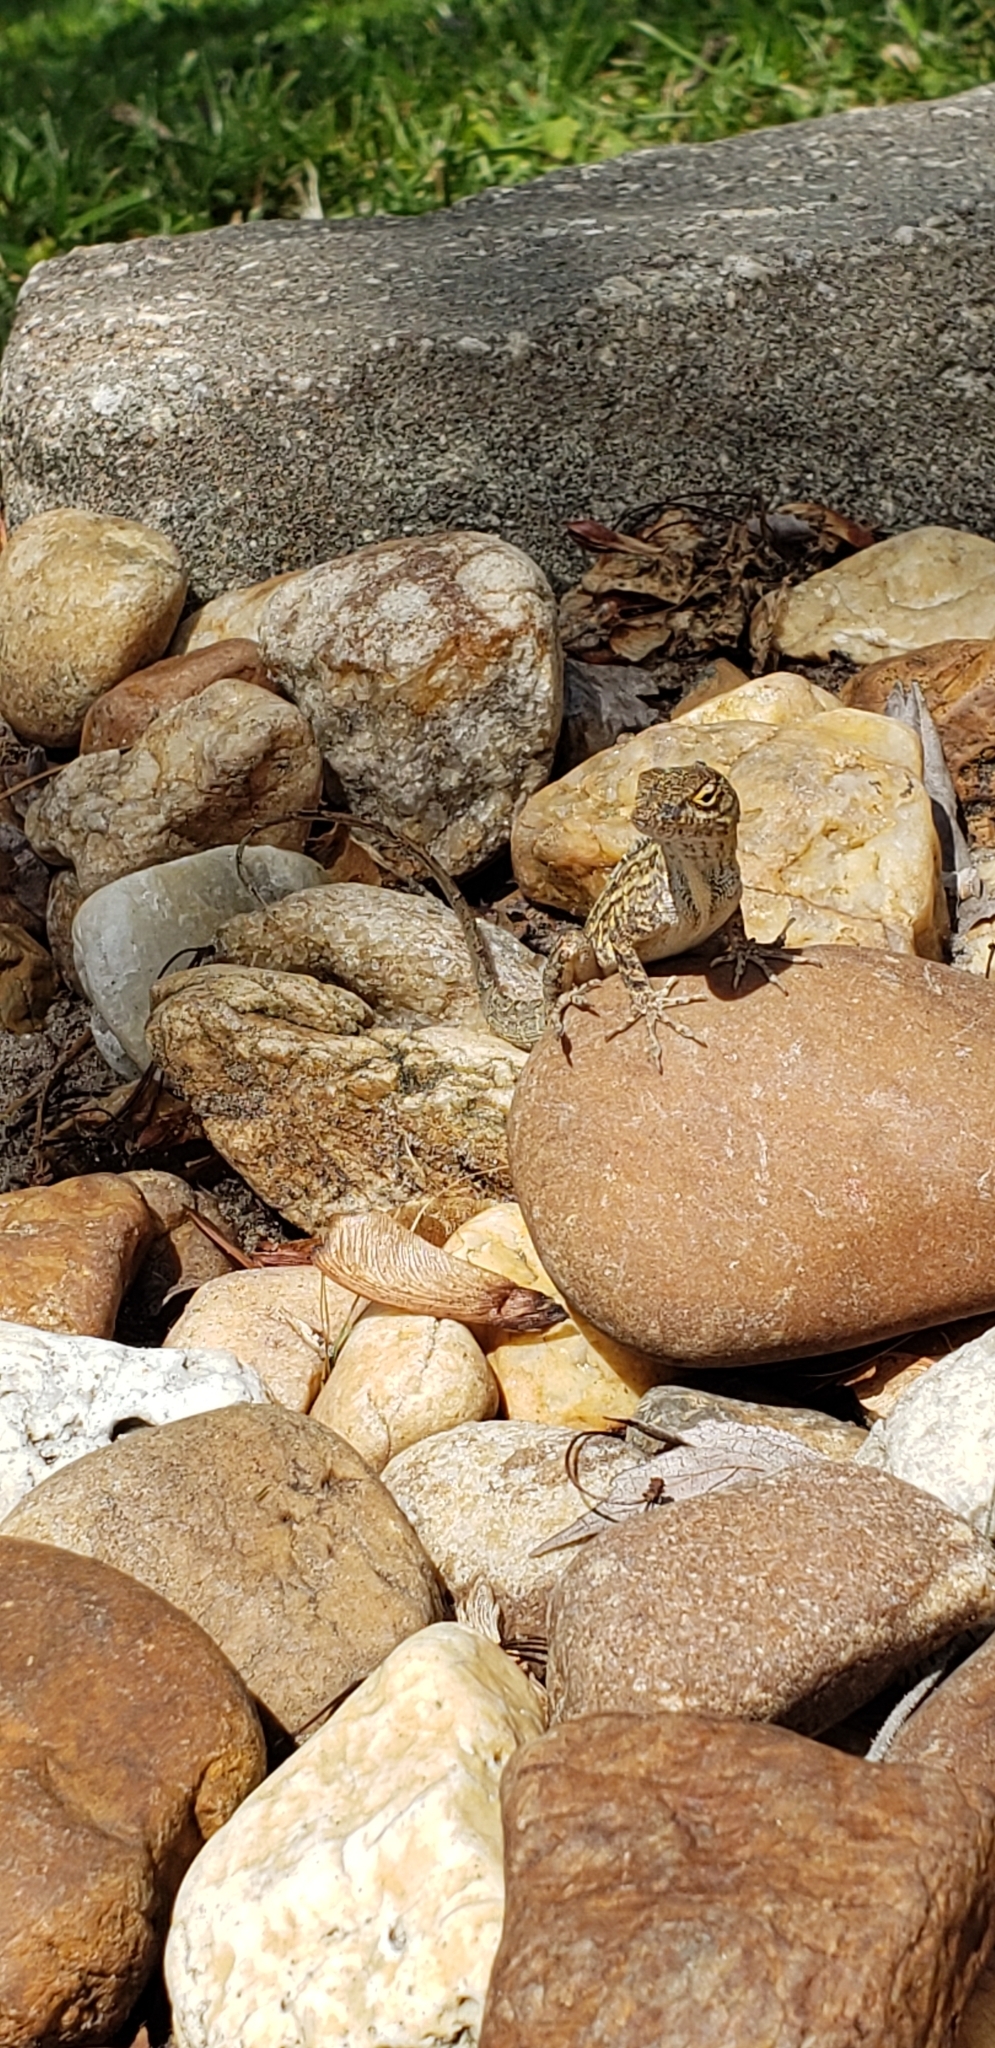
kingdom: Animalia
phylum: Chordata
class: Squamata
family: Dactyloidae
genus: Anolis
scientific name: Anolis sagrei
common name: Brown anole
